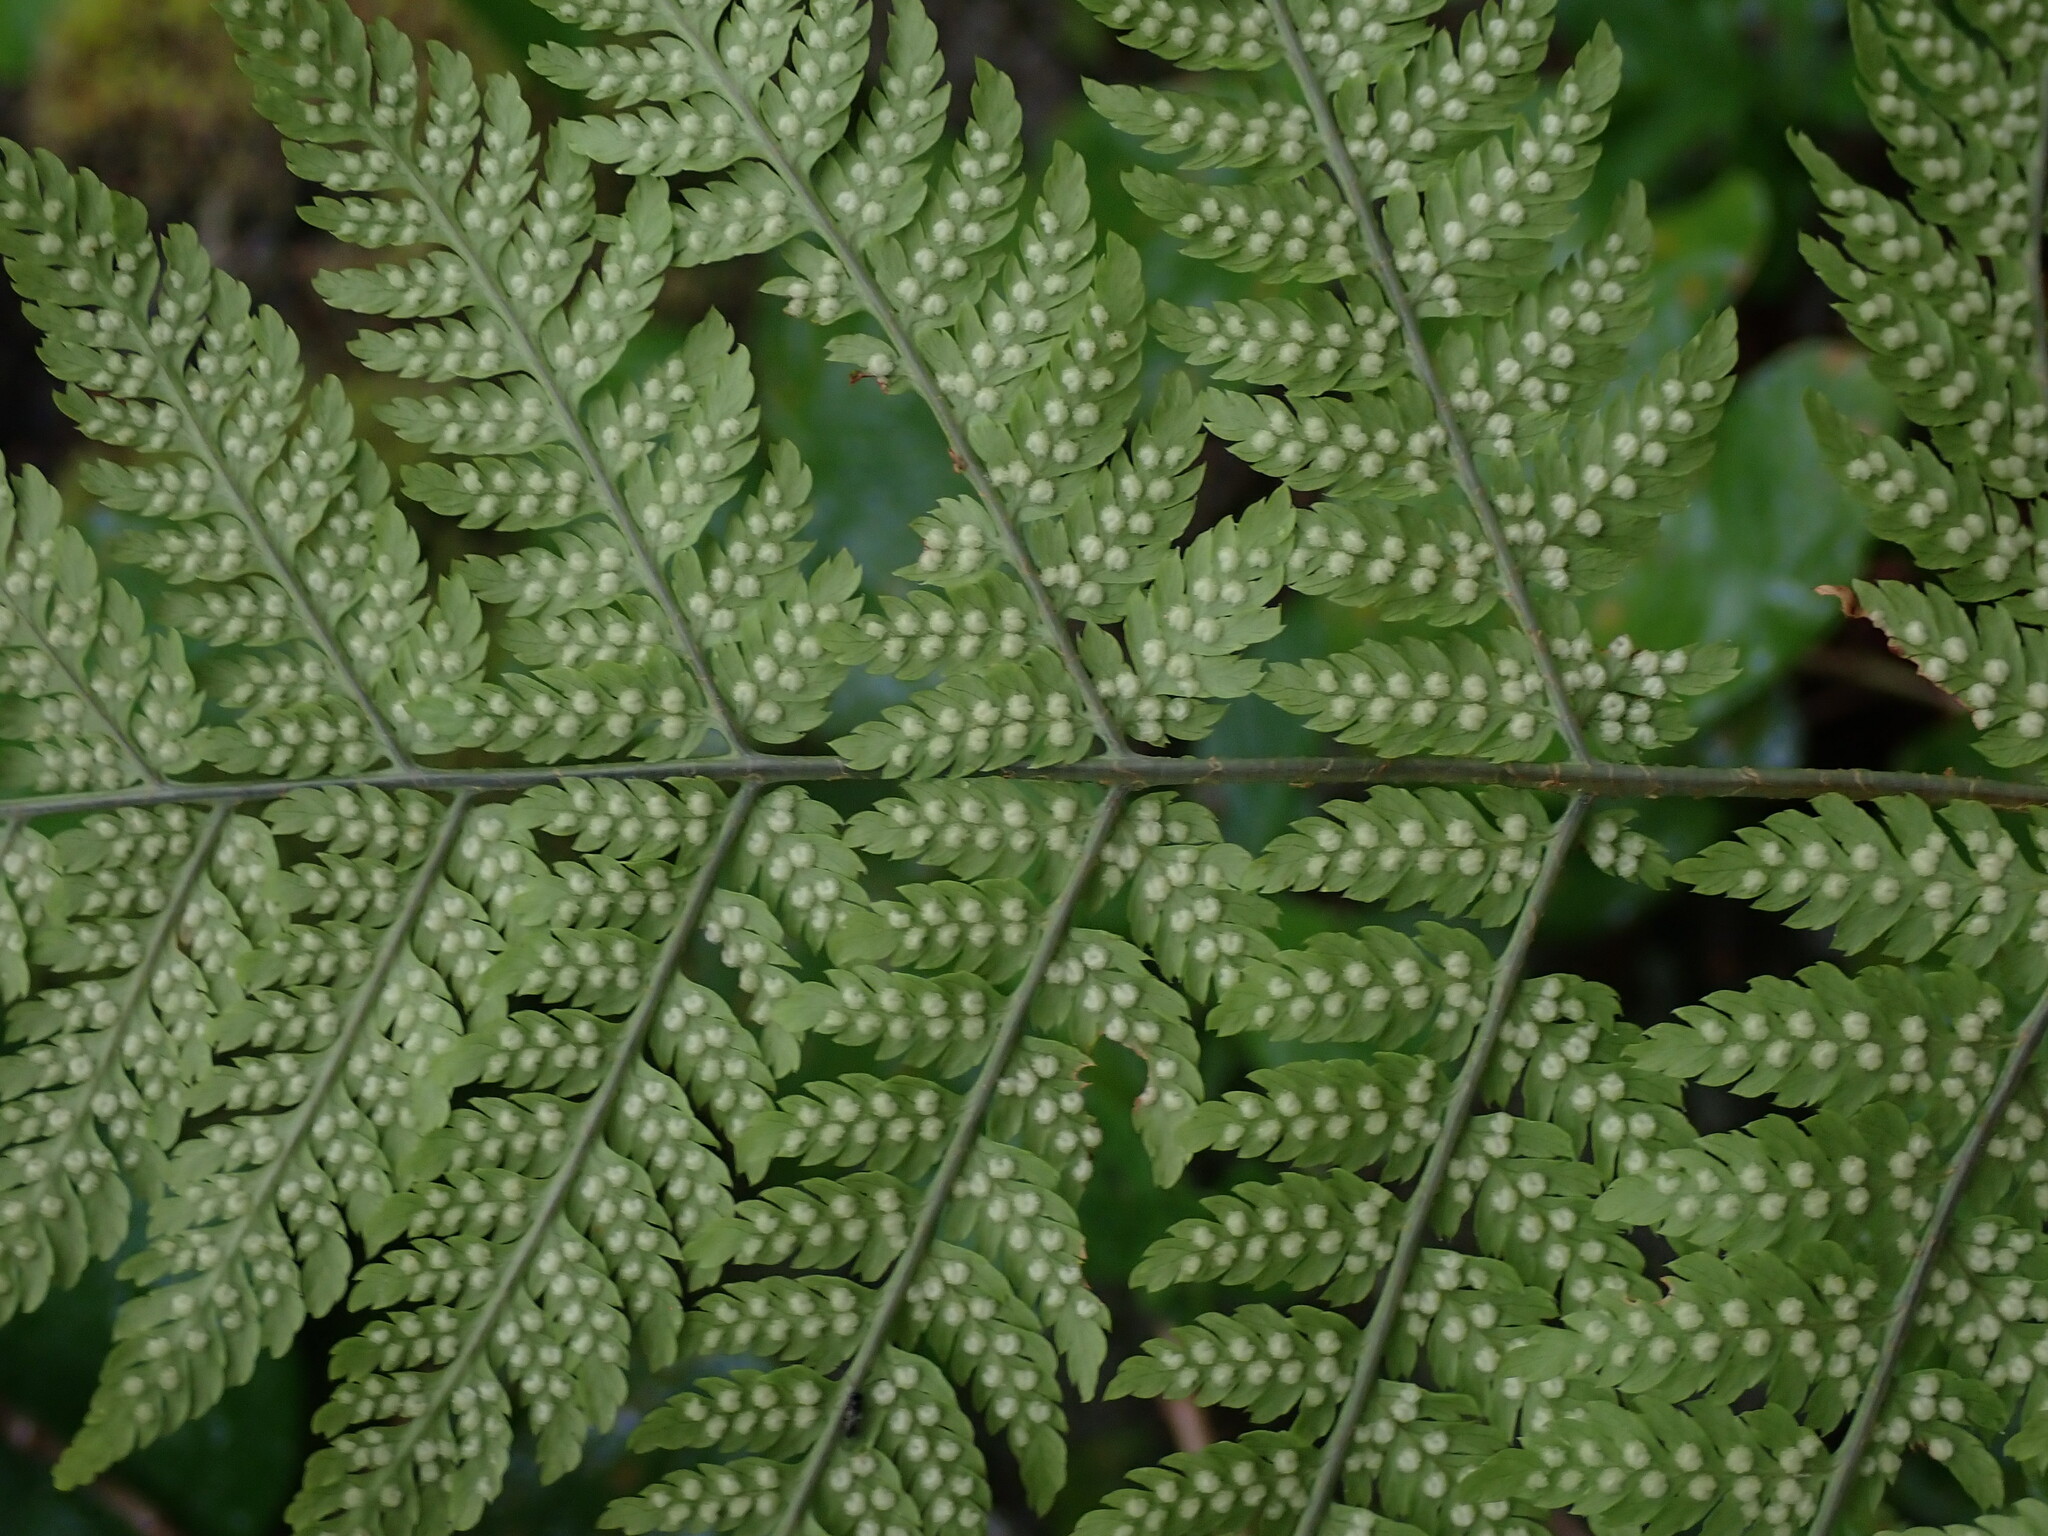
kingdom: Plantae
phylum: Tracheophyta
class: Polypodiopsida
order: Polypodiales
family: Dryopteridaceae
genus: Dryopteris
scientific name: Dryopteris expansa
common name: Northern buckler fern
